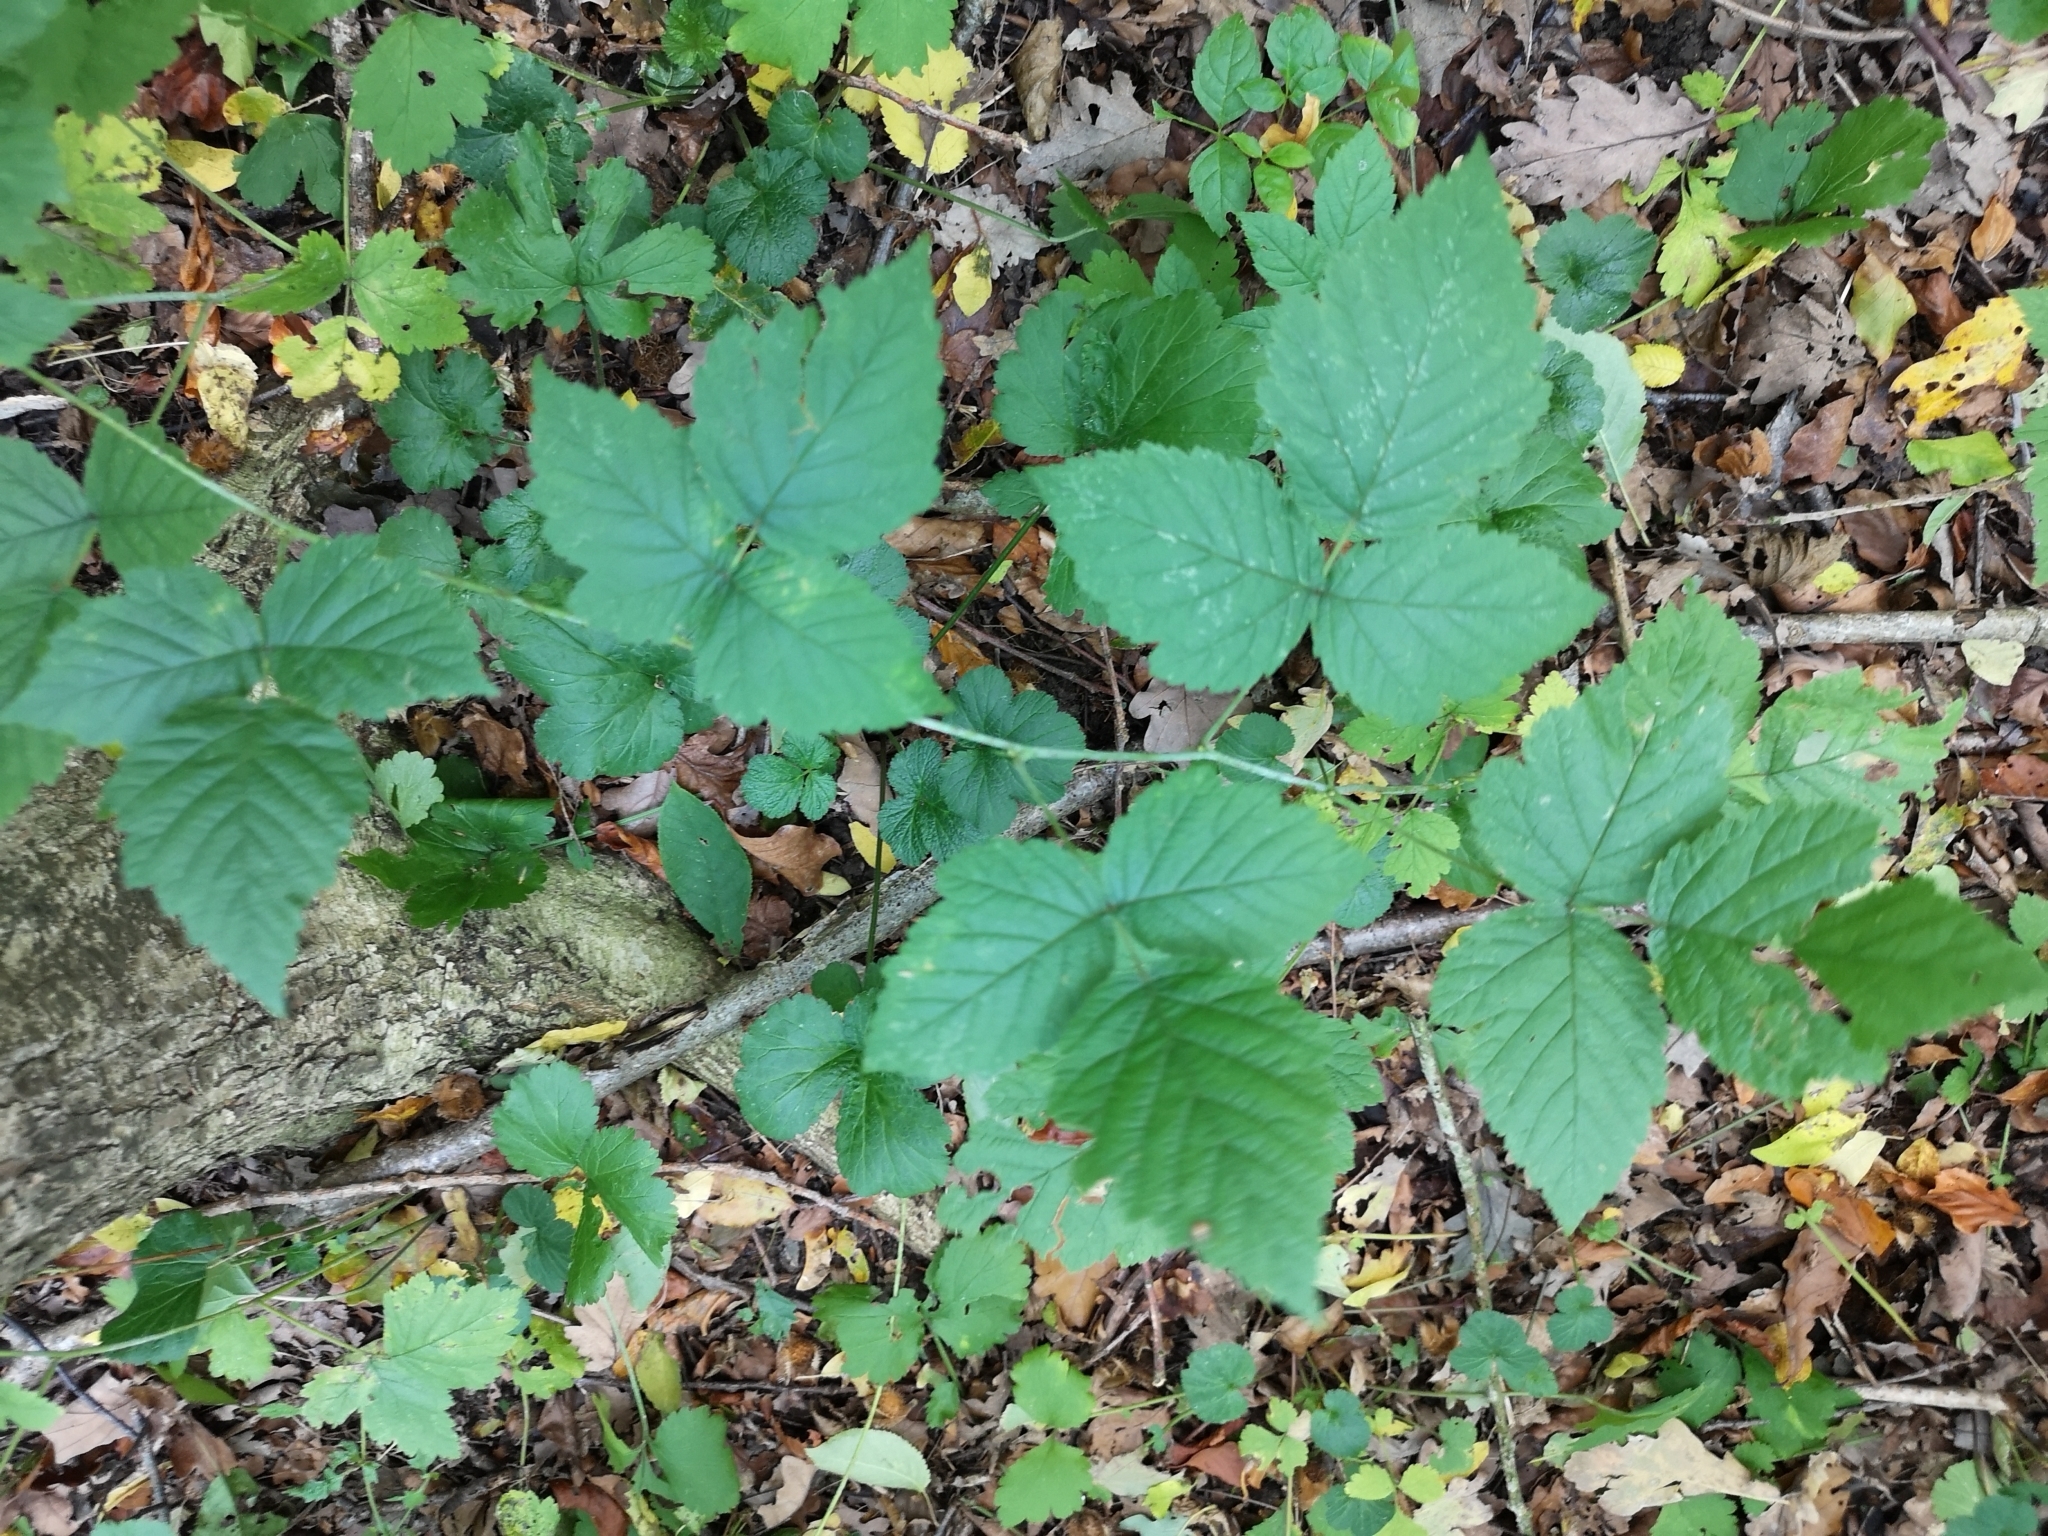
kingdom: Plantae
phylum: Tracheophyta
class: Magnoliopsida
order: Rosales
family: Rosaceae
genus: Rubus
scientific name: Rubus caesius
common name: Dewberry
